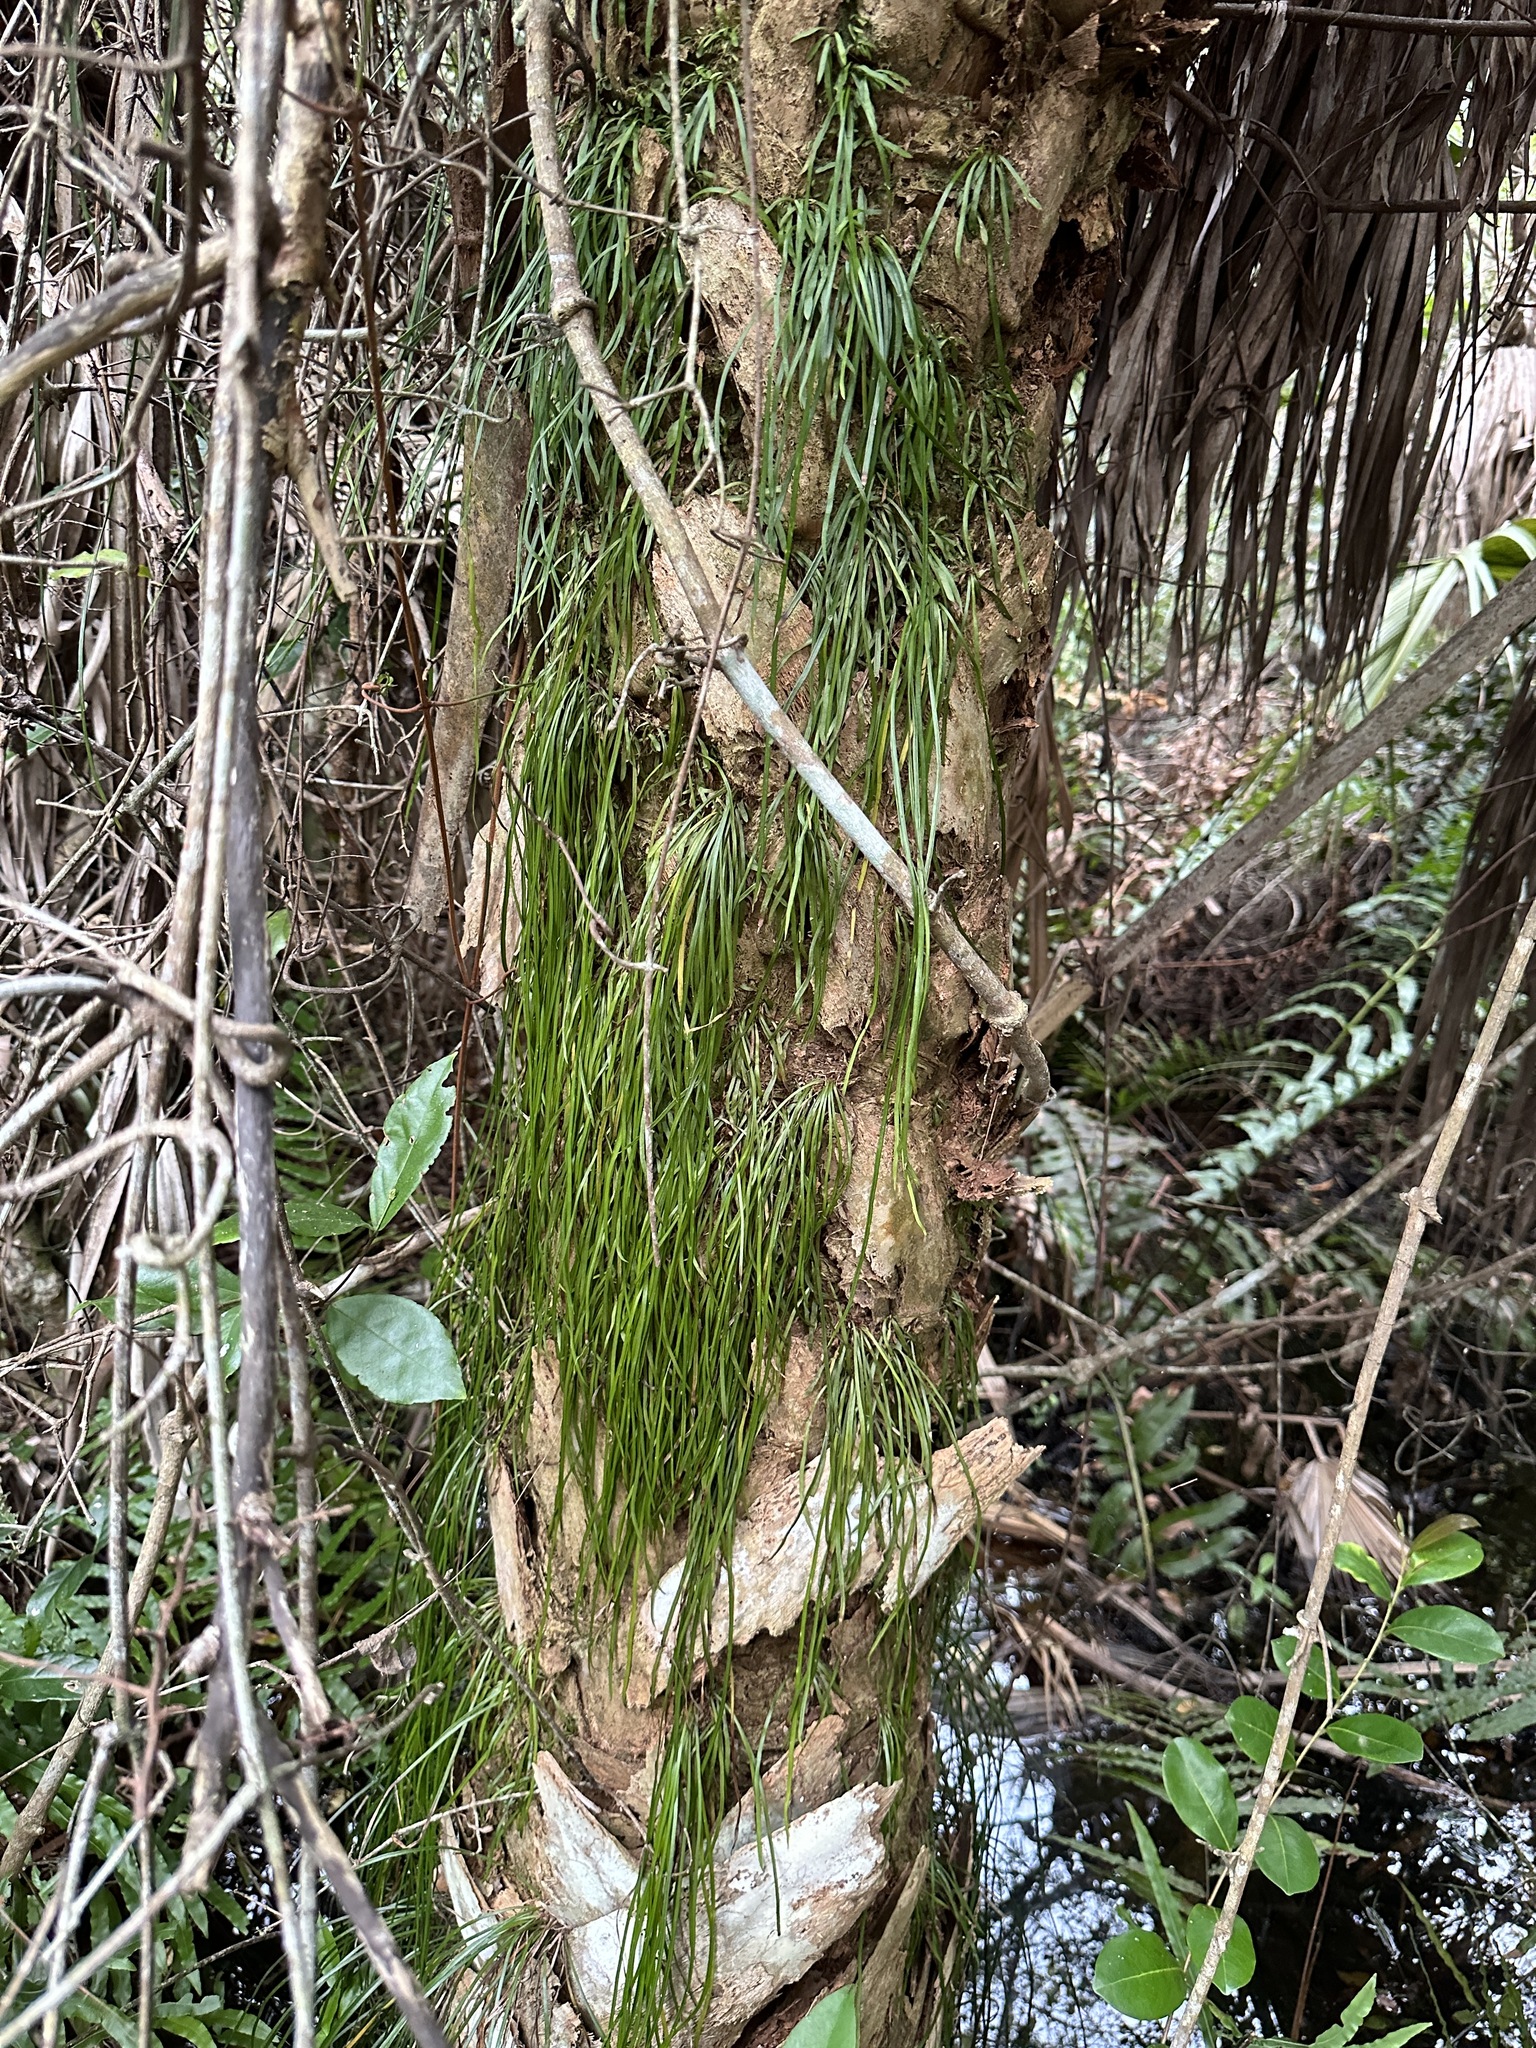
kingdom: Plantae
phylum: Tracheophyta
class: Polypodiopsida
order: Polypodiales
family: Pteridaceae
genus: Vittaria
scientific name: Vittaria lineata
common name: Shoestring fern
